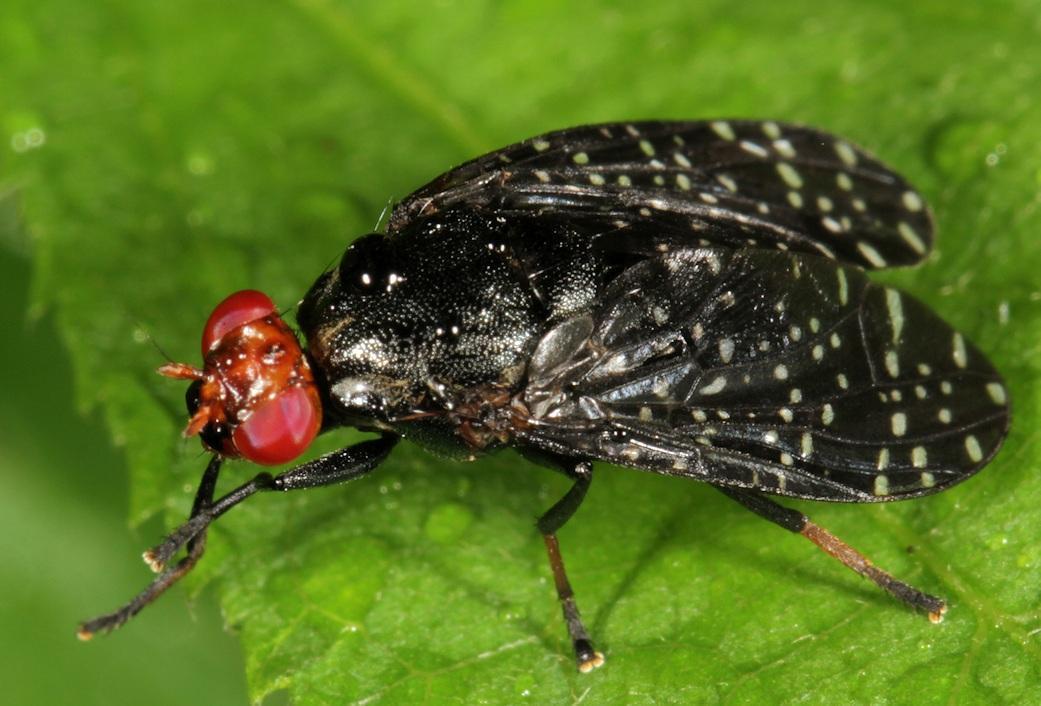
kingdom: Animalia
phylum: Arthropoda
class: Insecta
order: Diptera
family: Platystomatidae
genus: Peltacanthina
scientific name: Peltacanthina mythodes
